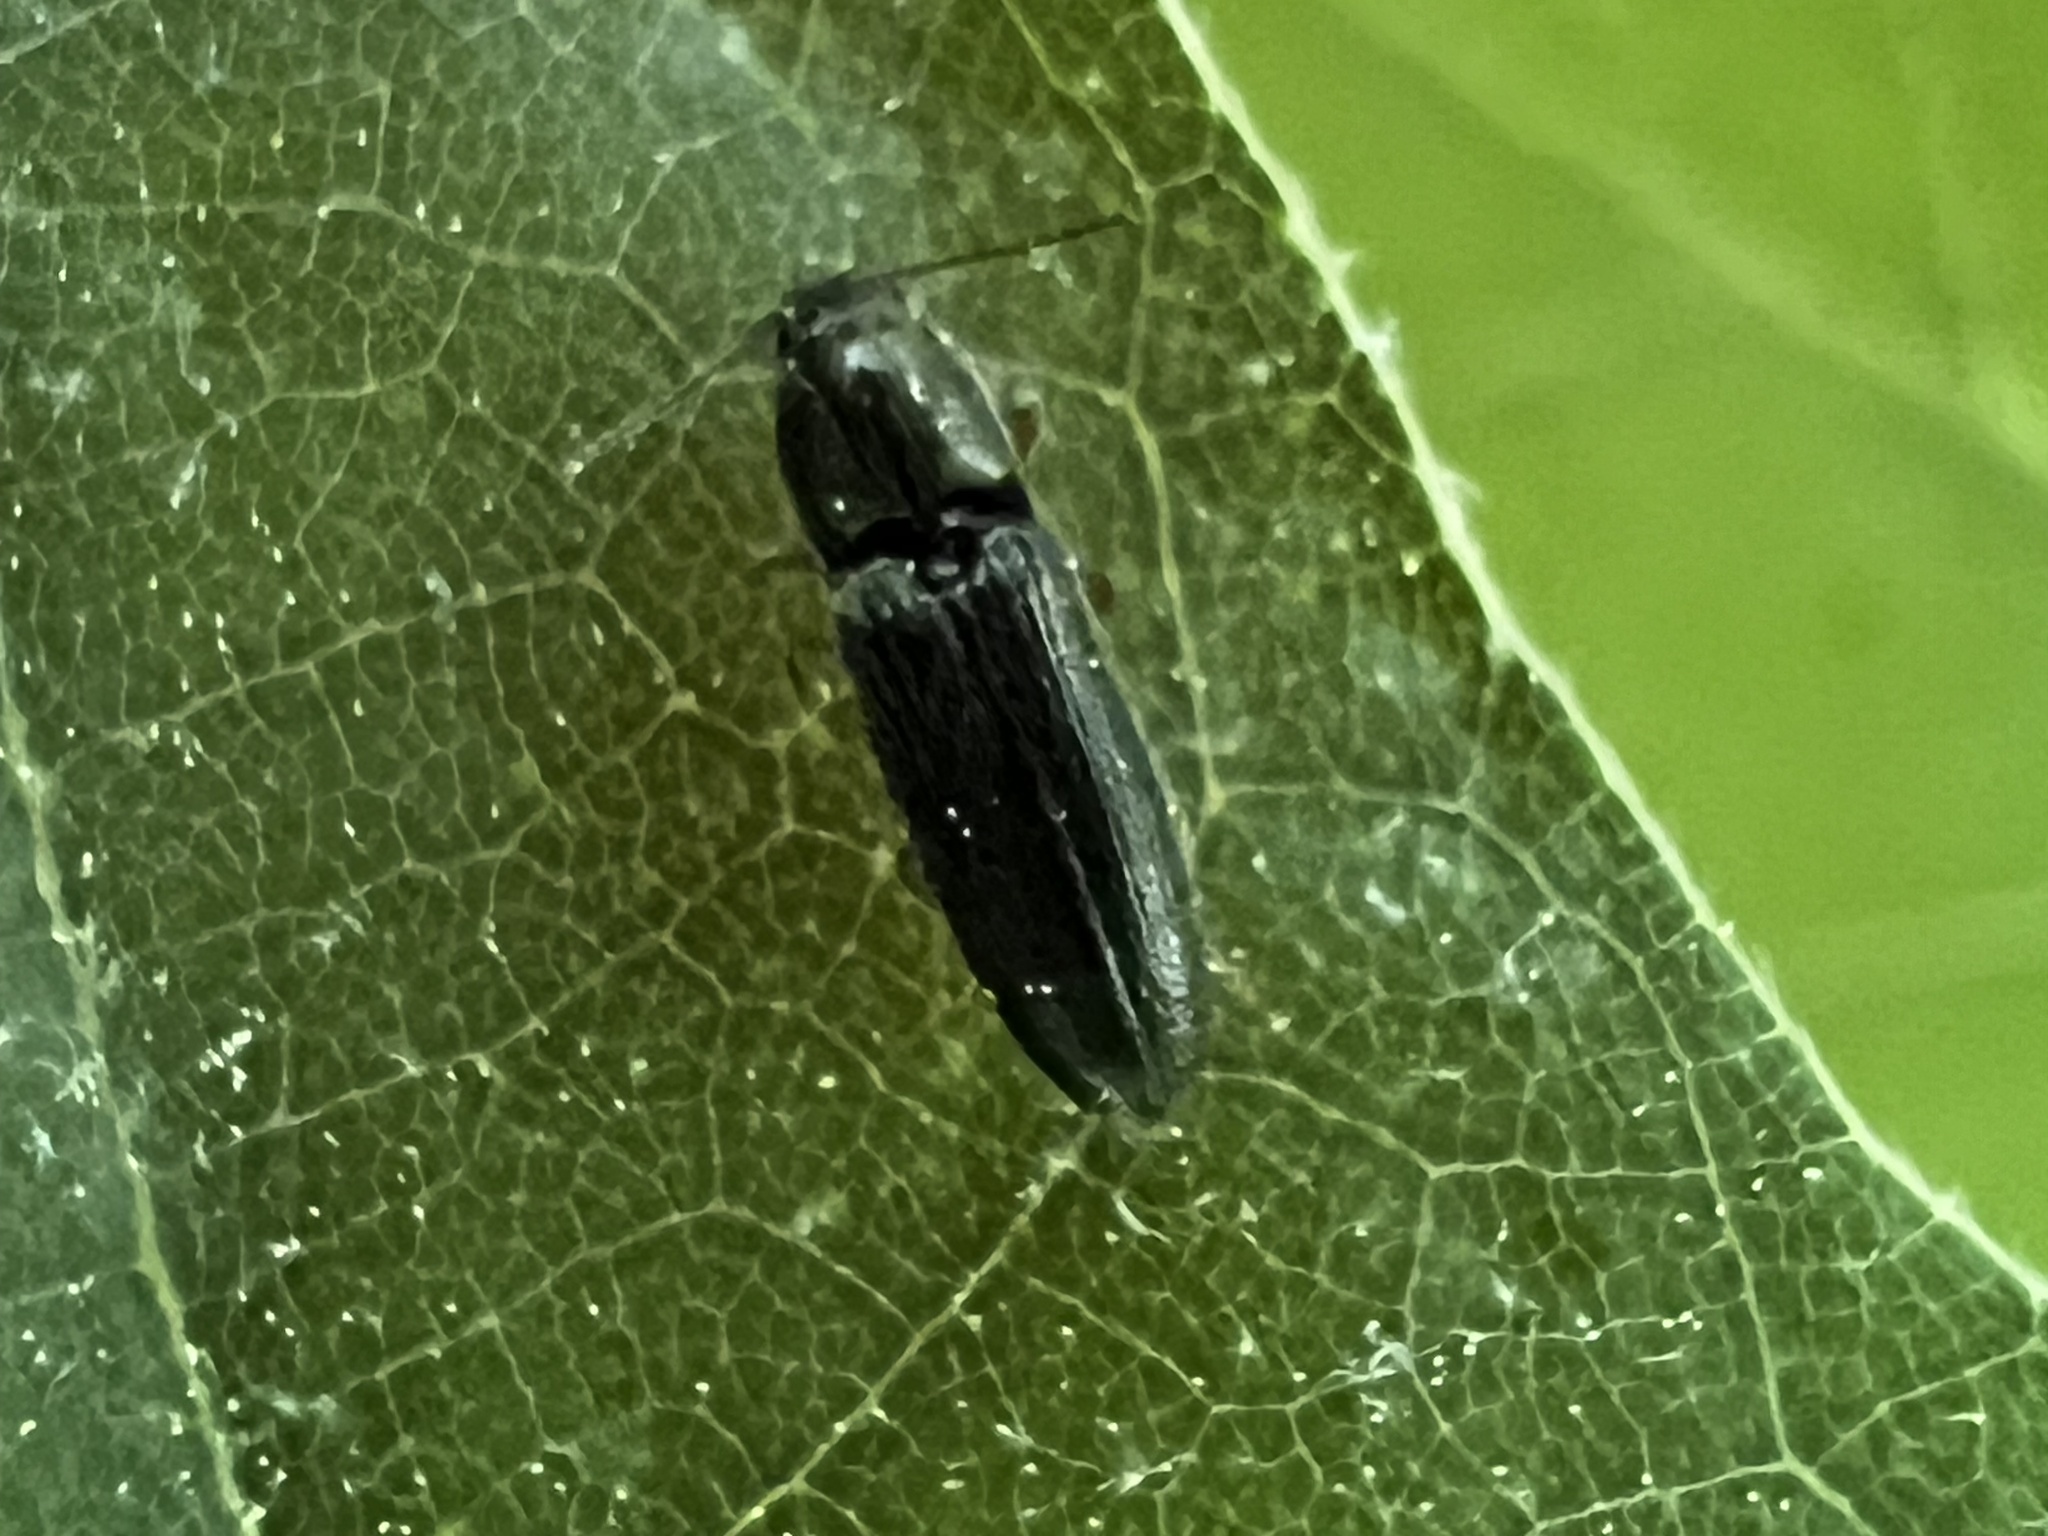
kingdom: Animalia
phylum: Arthropoda
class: Insecta
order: Coleoptera
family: Elateridae
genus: Limonius
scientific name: Limonius quercinus
